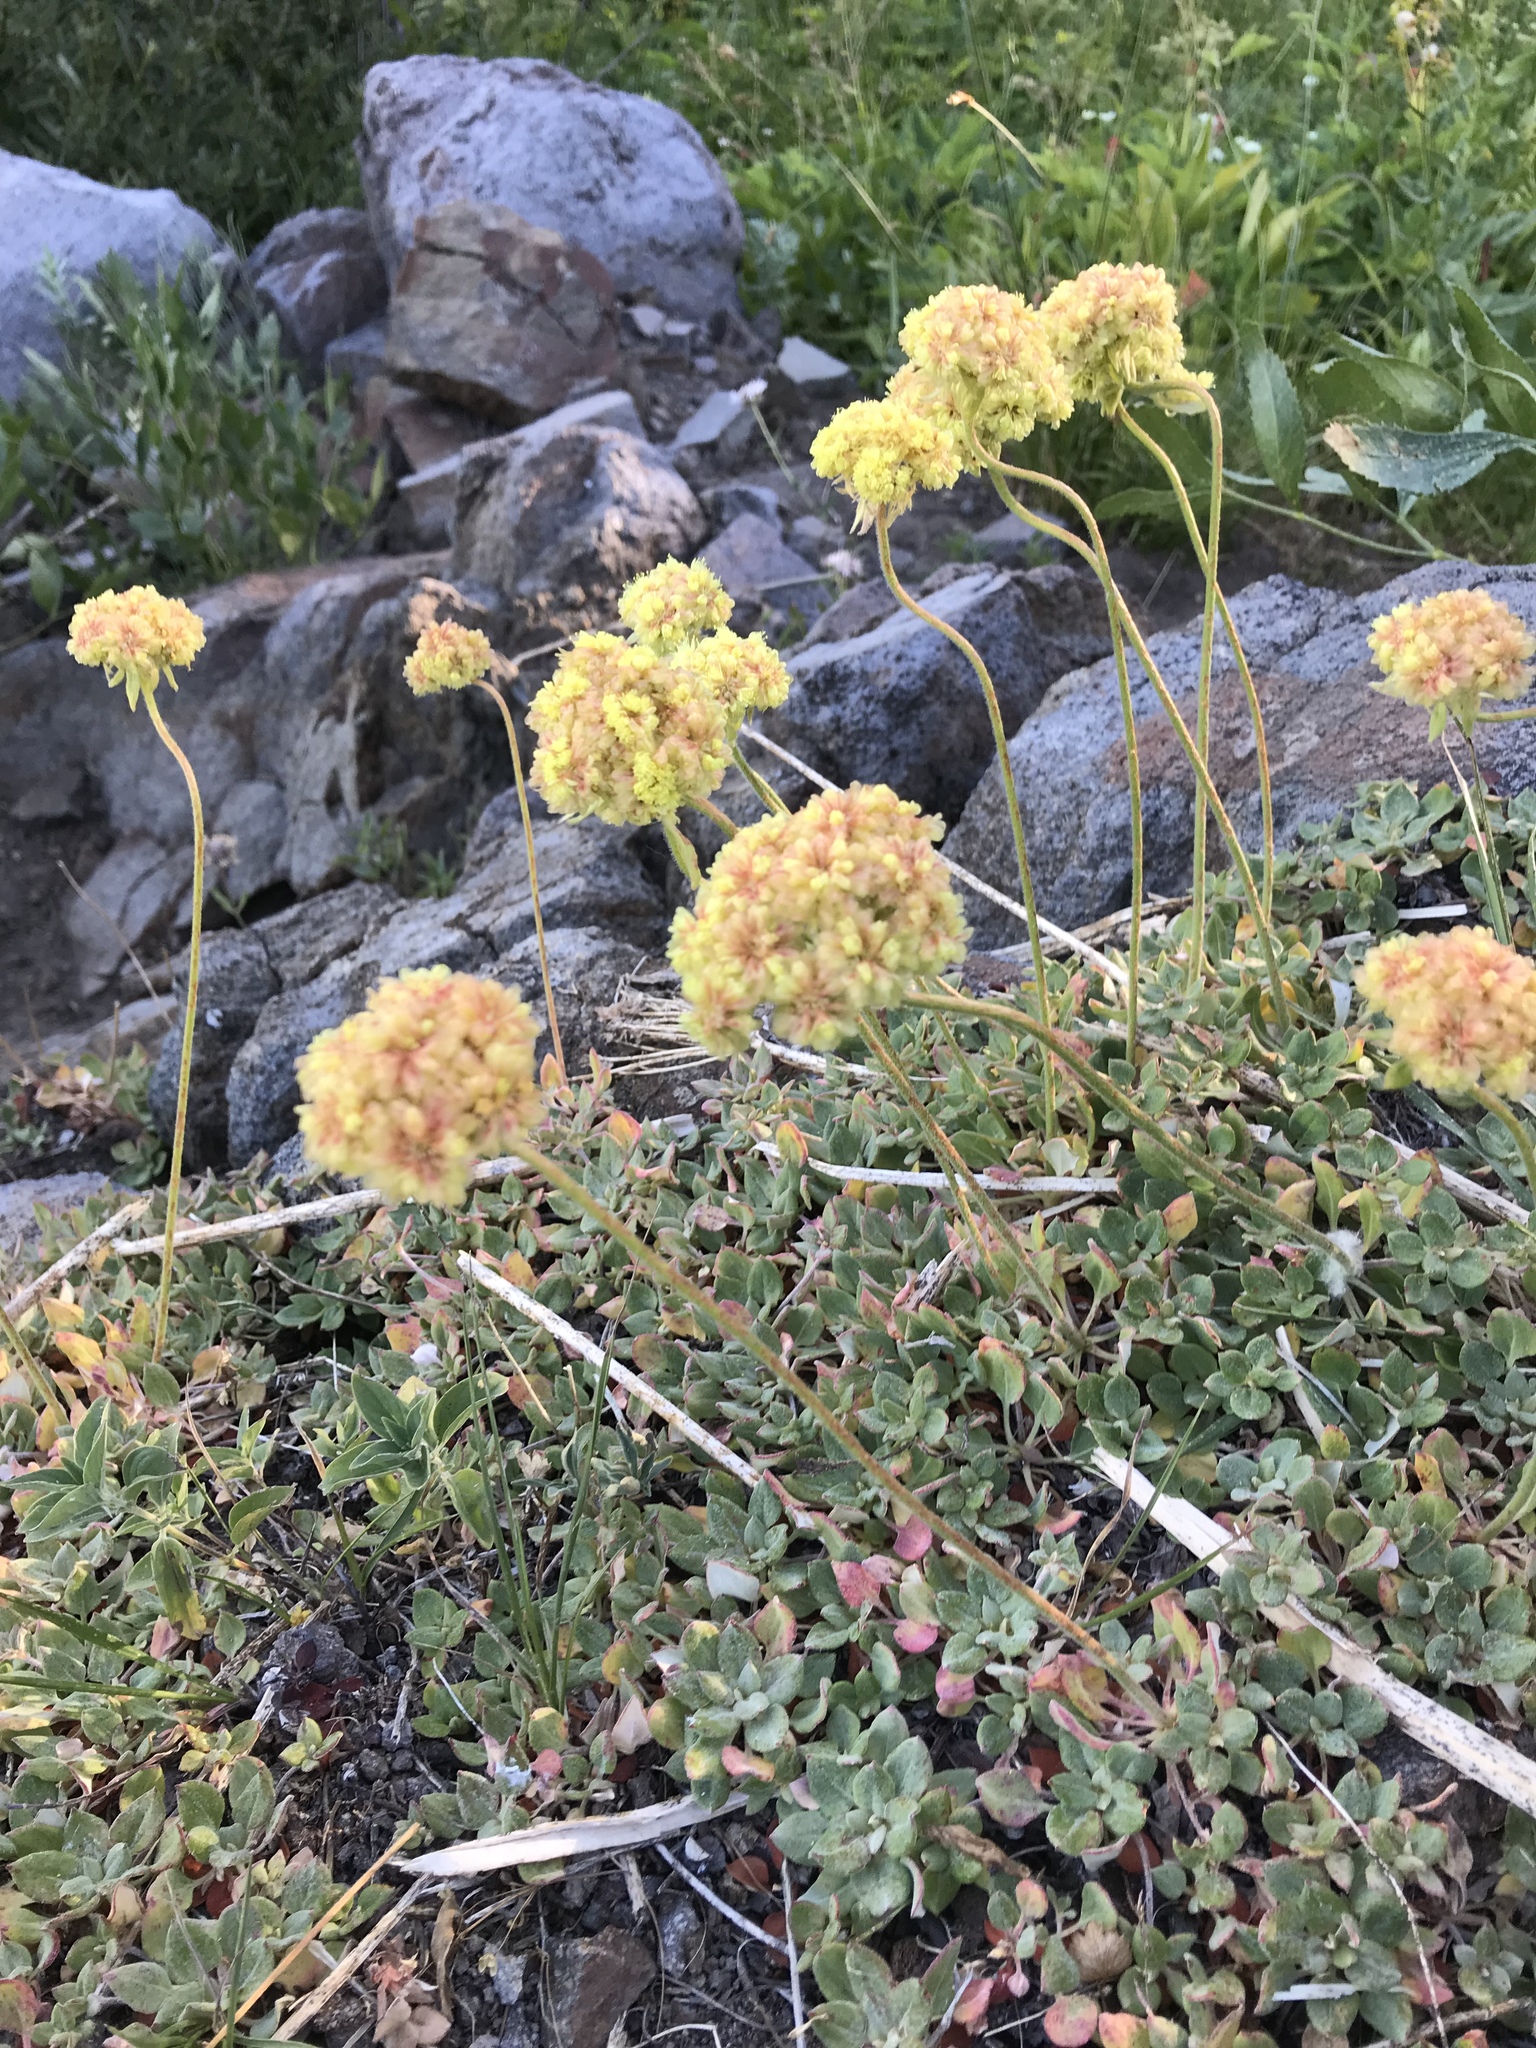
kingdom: Plantae
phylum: Tracheophyta
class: Magnoliopsida
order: Caryophyllales
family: Polygonaceae
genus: Eriogonum
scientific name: Eriogonum ursinum
